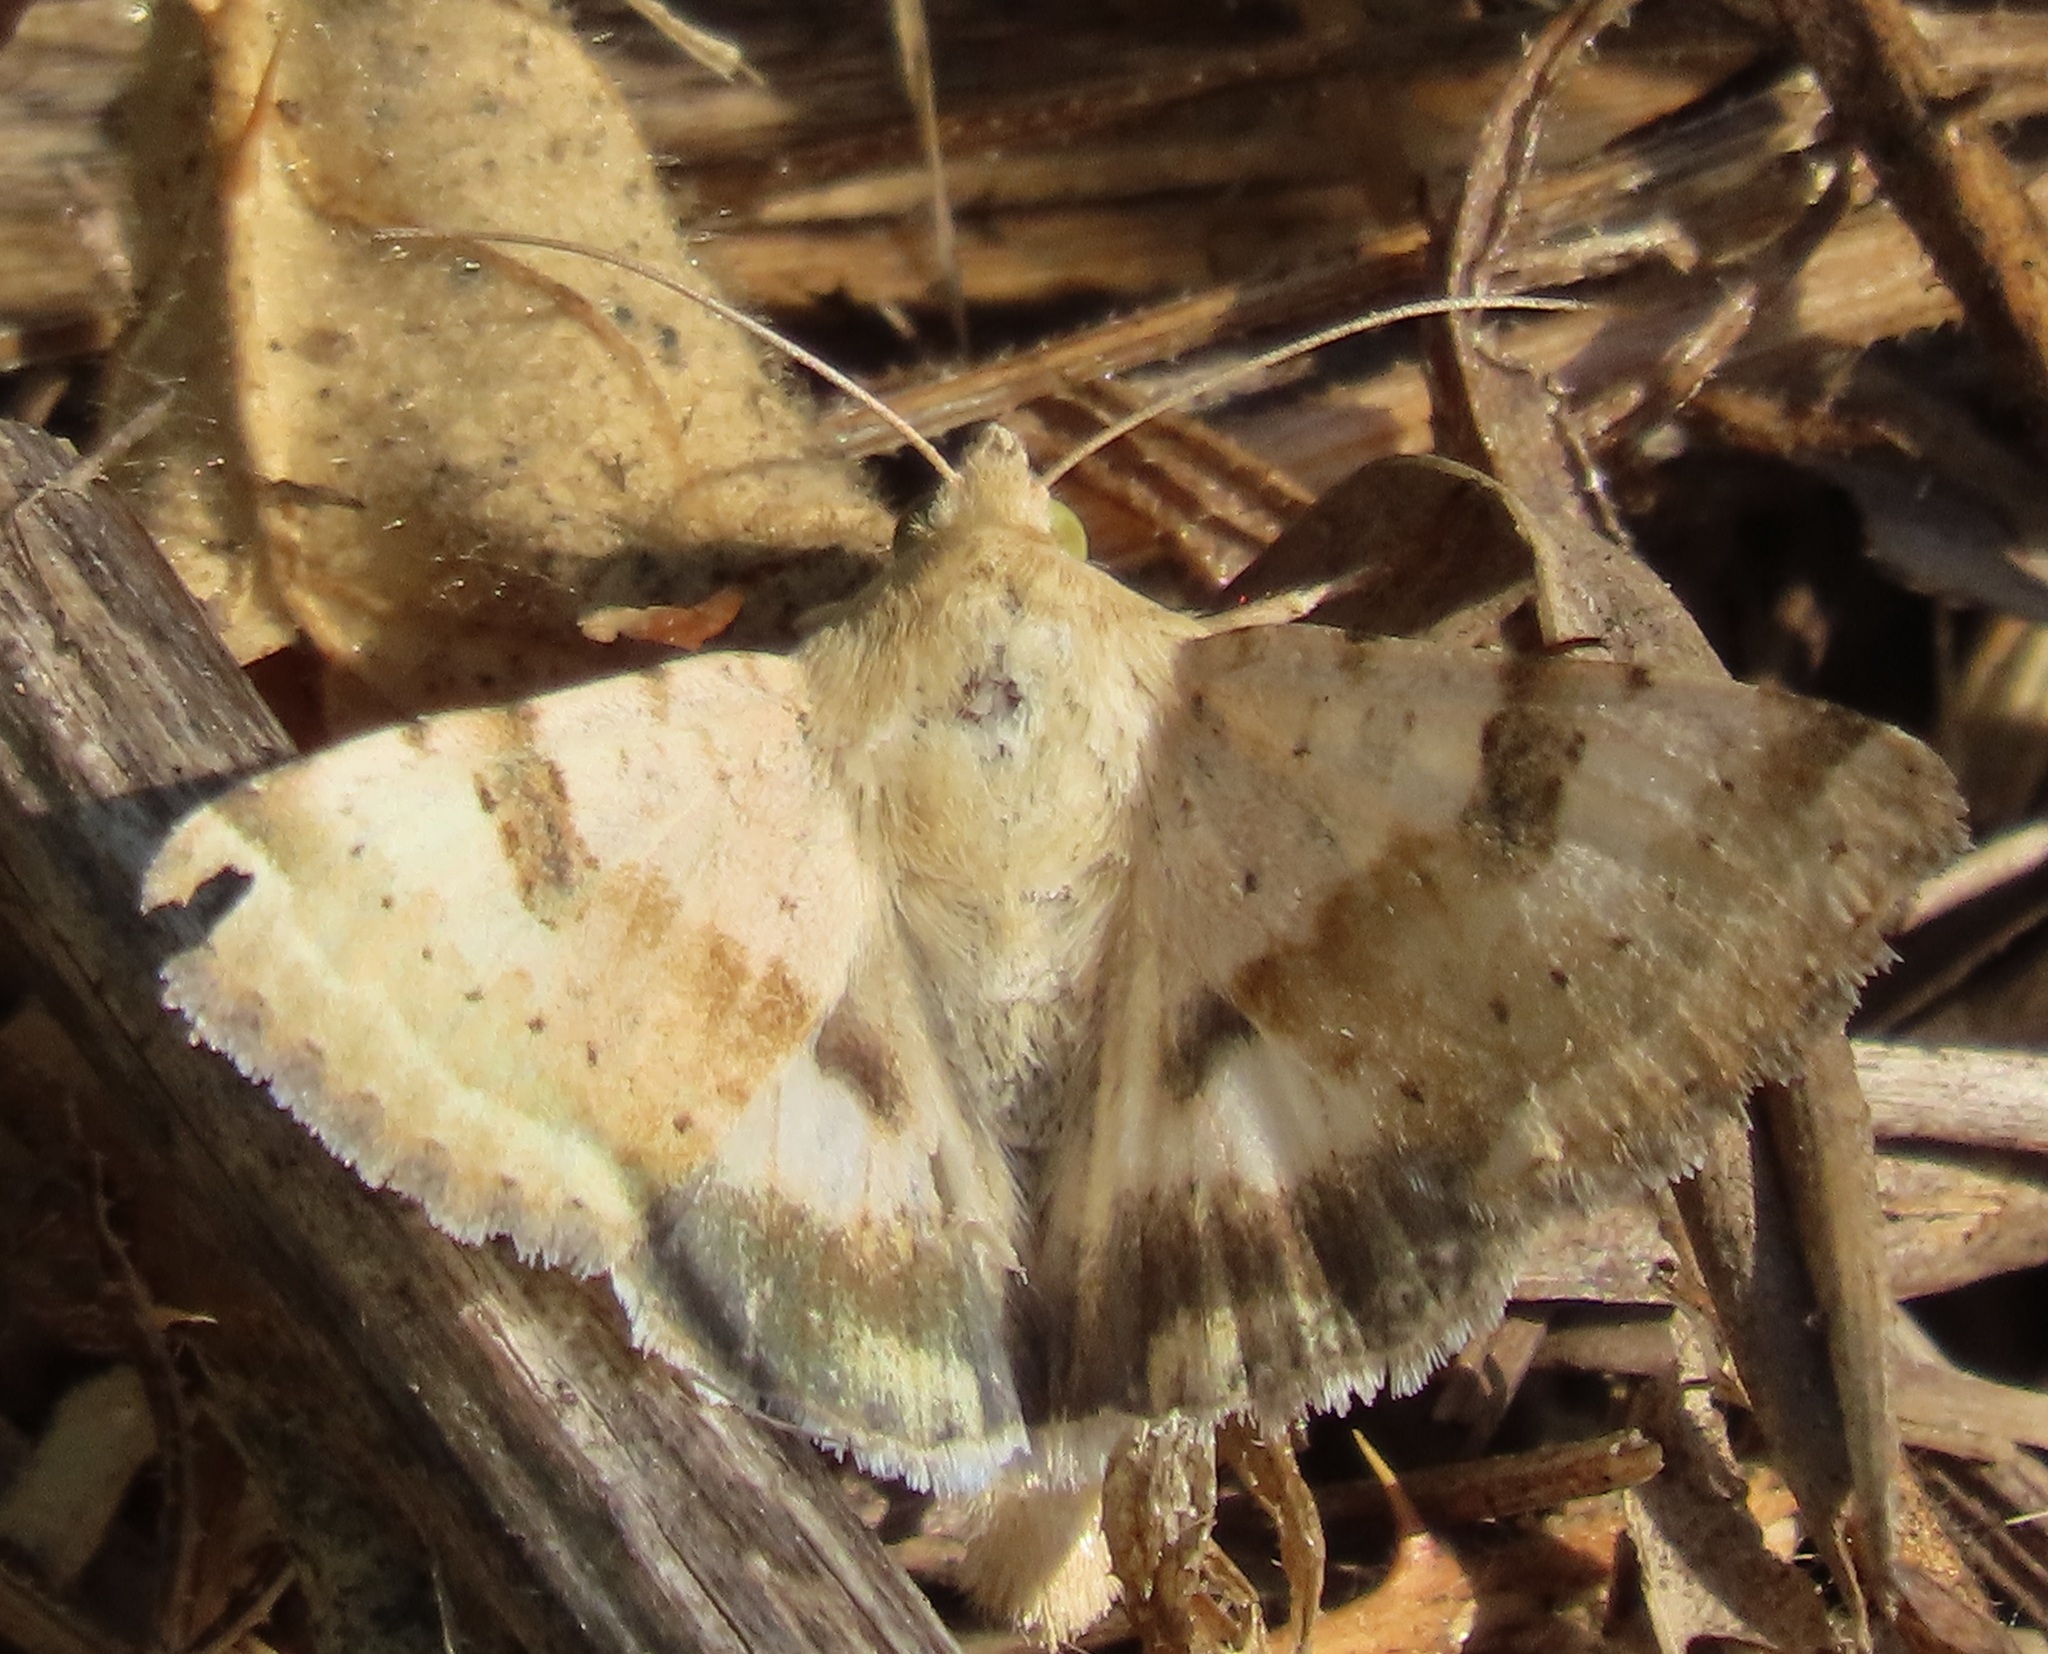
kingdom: Animalia
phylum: Arthropoda
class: Insecta
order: Lepidoptera
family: Noctuidae
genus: Heliothis
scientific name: Heliothis phloxiphaga
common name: Darker spotted straw moth
